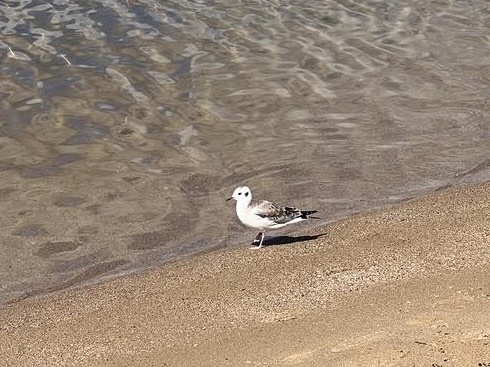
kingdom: Animalia
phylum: Chordata
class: Aves
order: Charadriiformes
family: Laridae
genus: Chroicocephalus
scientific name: Chroicocephalus philadelphia
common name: Bonaparte's gull
